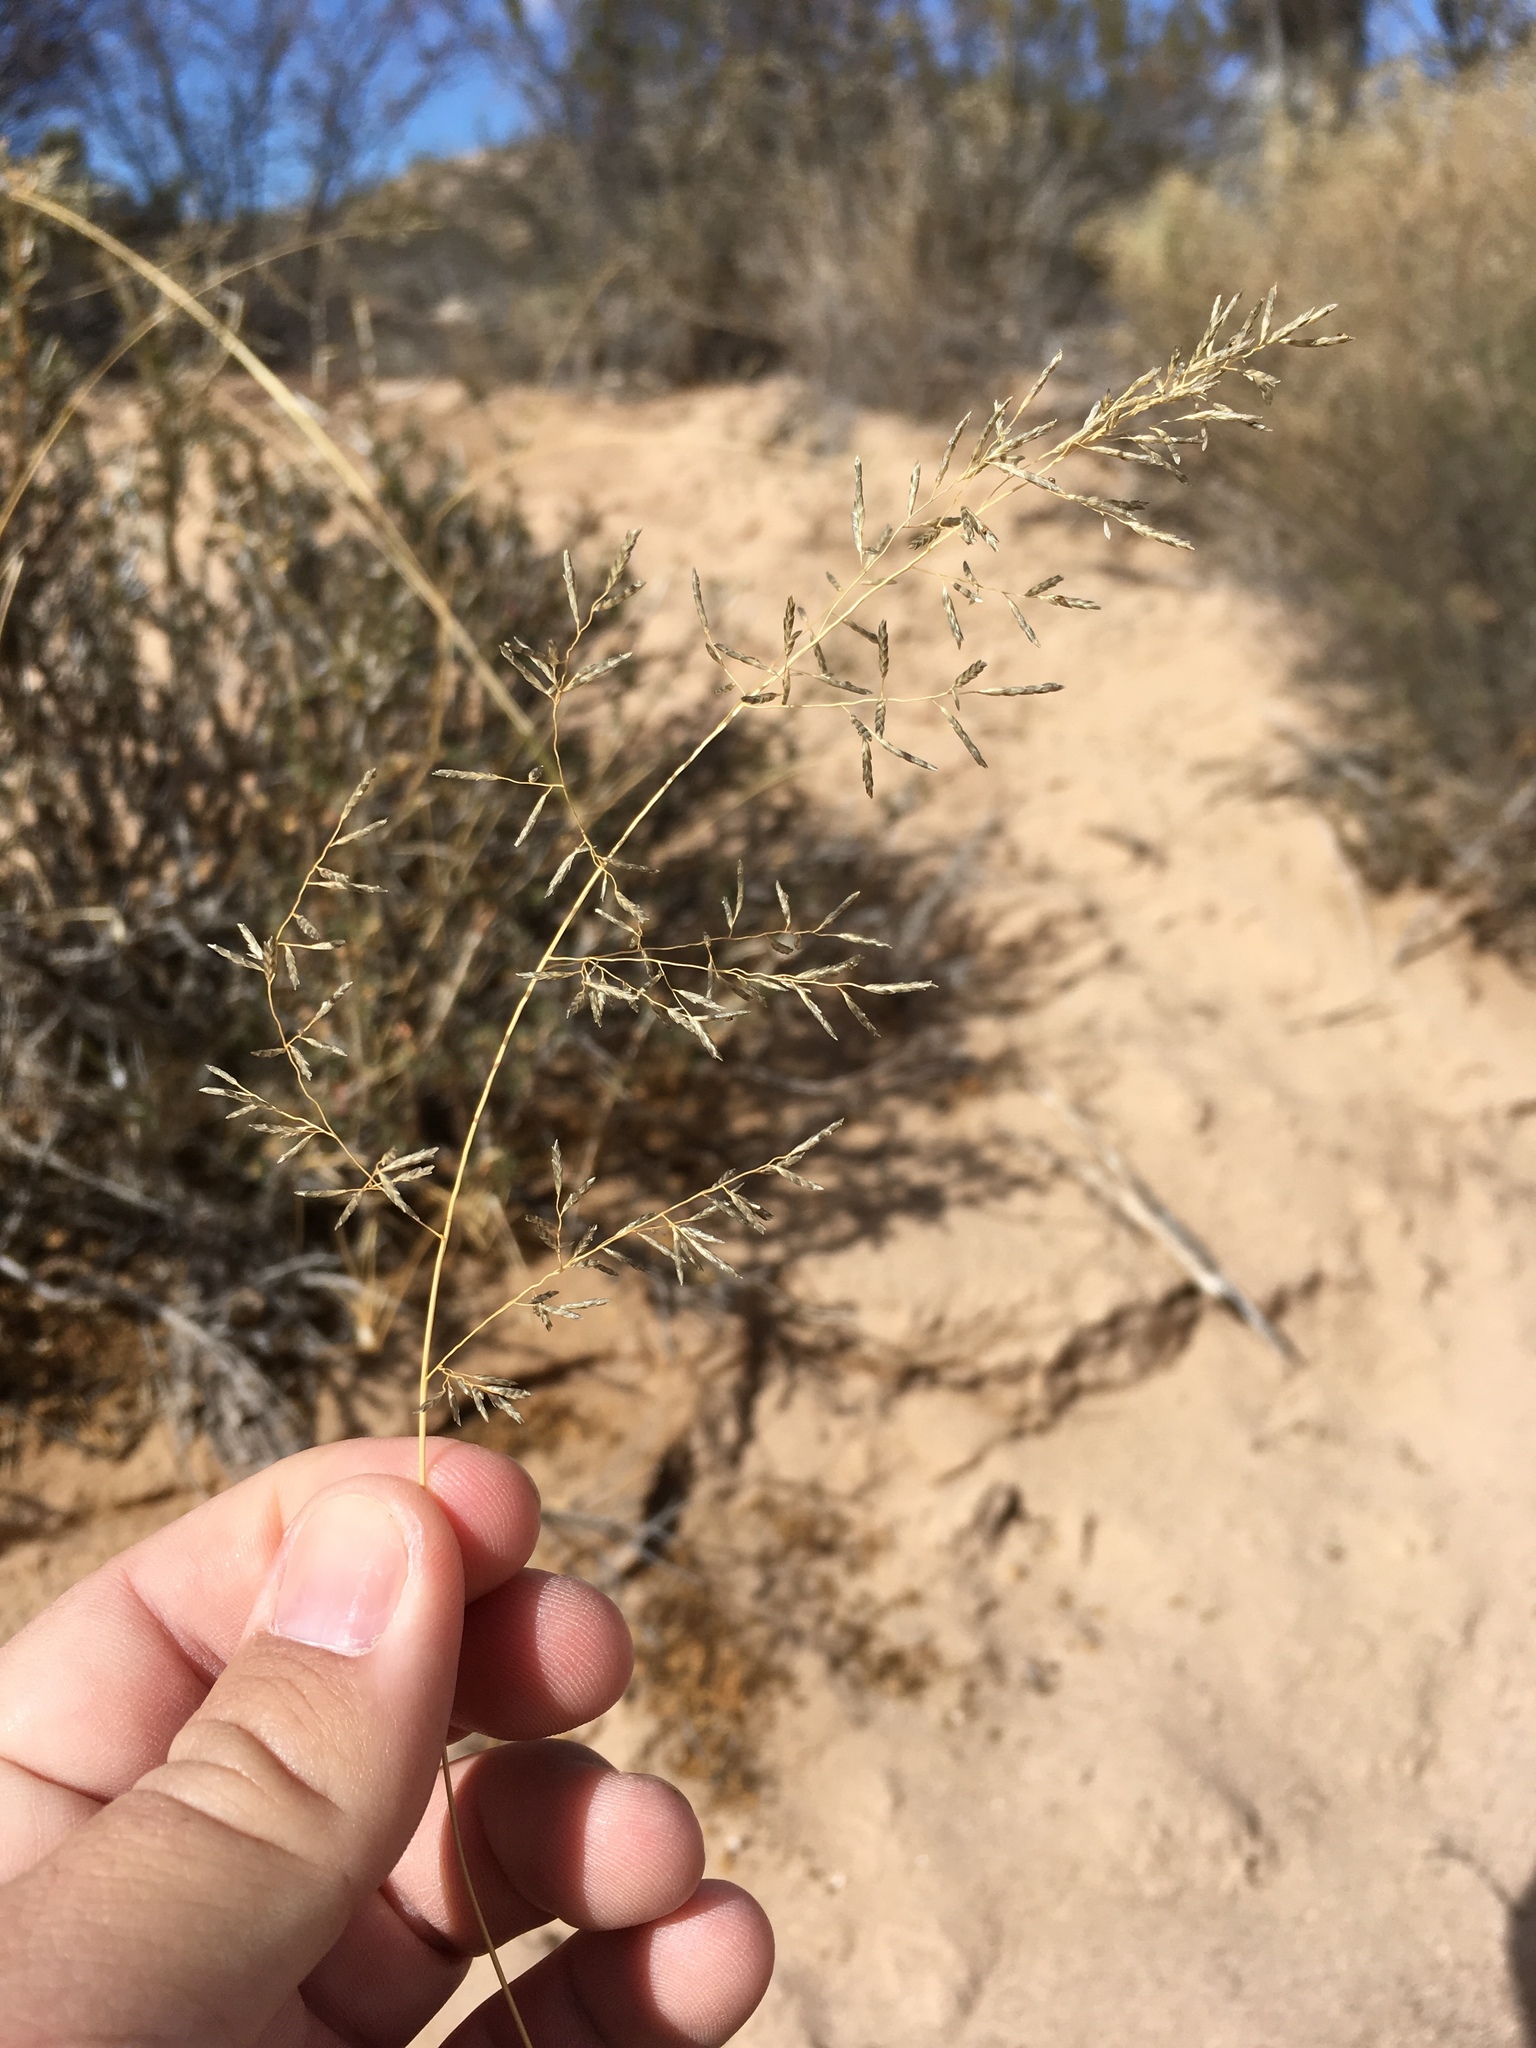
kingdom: Plantae
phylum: Tracheophyta
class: Liliopsida
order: Poales
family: Poaceae
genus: Eragrostis
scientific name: Eragrostis lehmanniana
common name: Lehmann lovegrass
